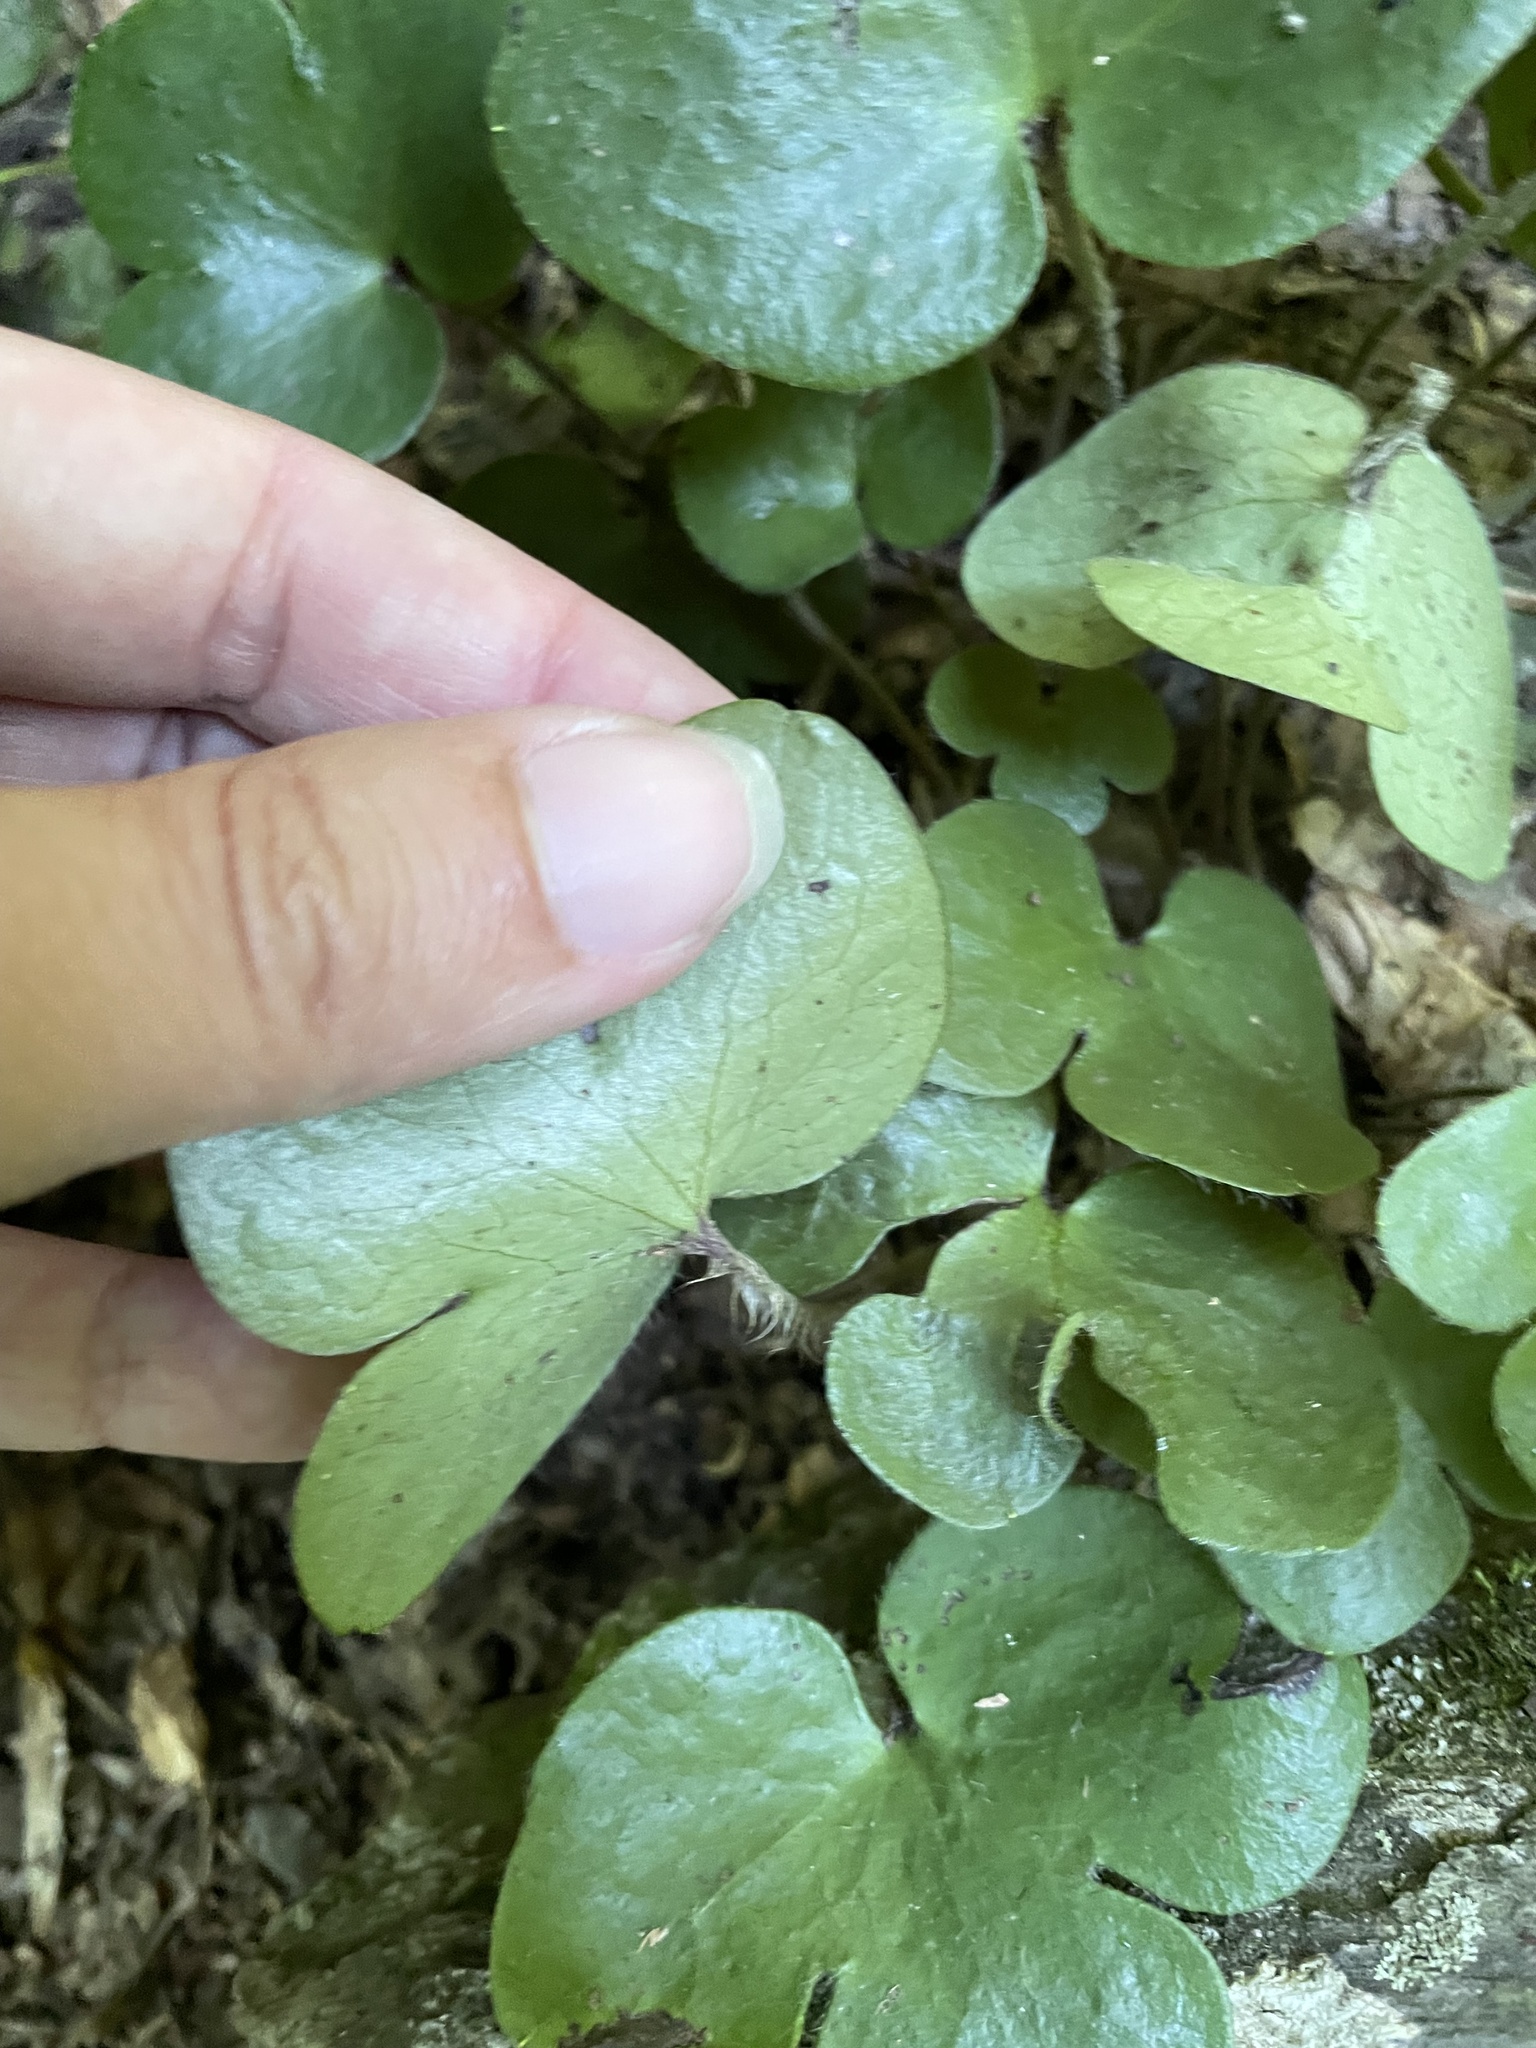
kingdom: Plantae
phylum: Tracheophyta
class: Magnoliopsida
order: Ranunculales
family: Ranunculaceae
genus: Hepatica
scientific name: Hepatica americana
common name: American hepatica
